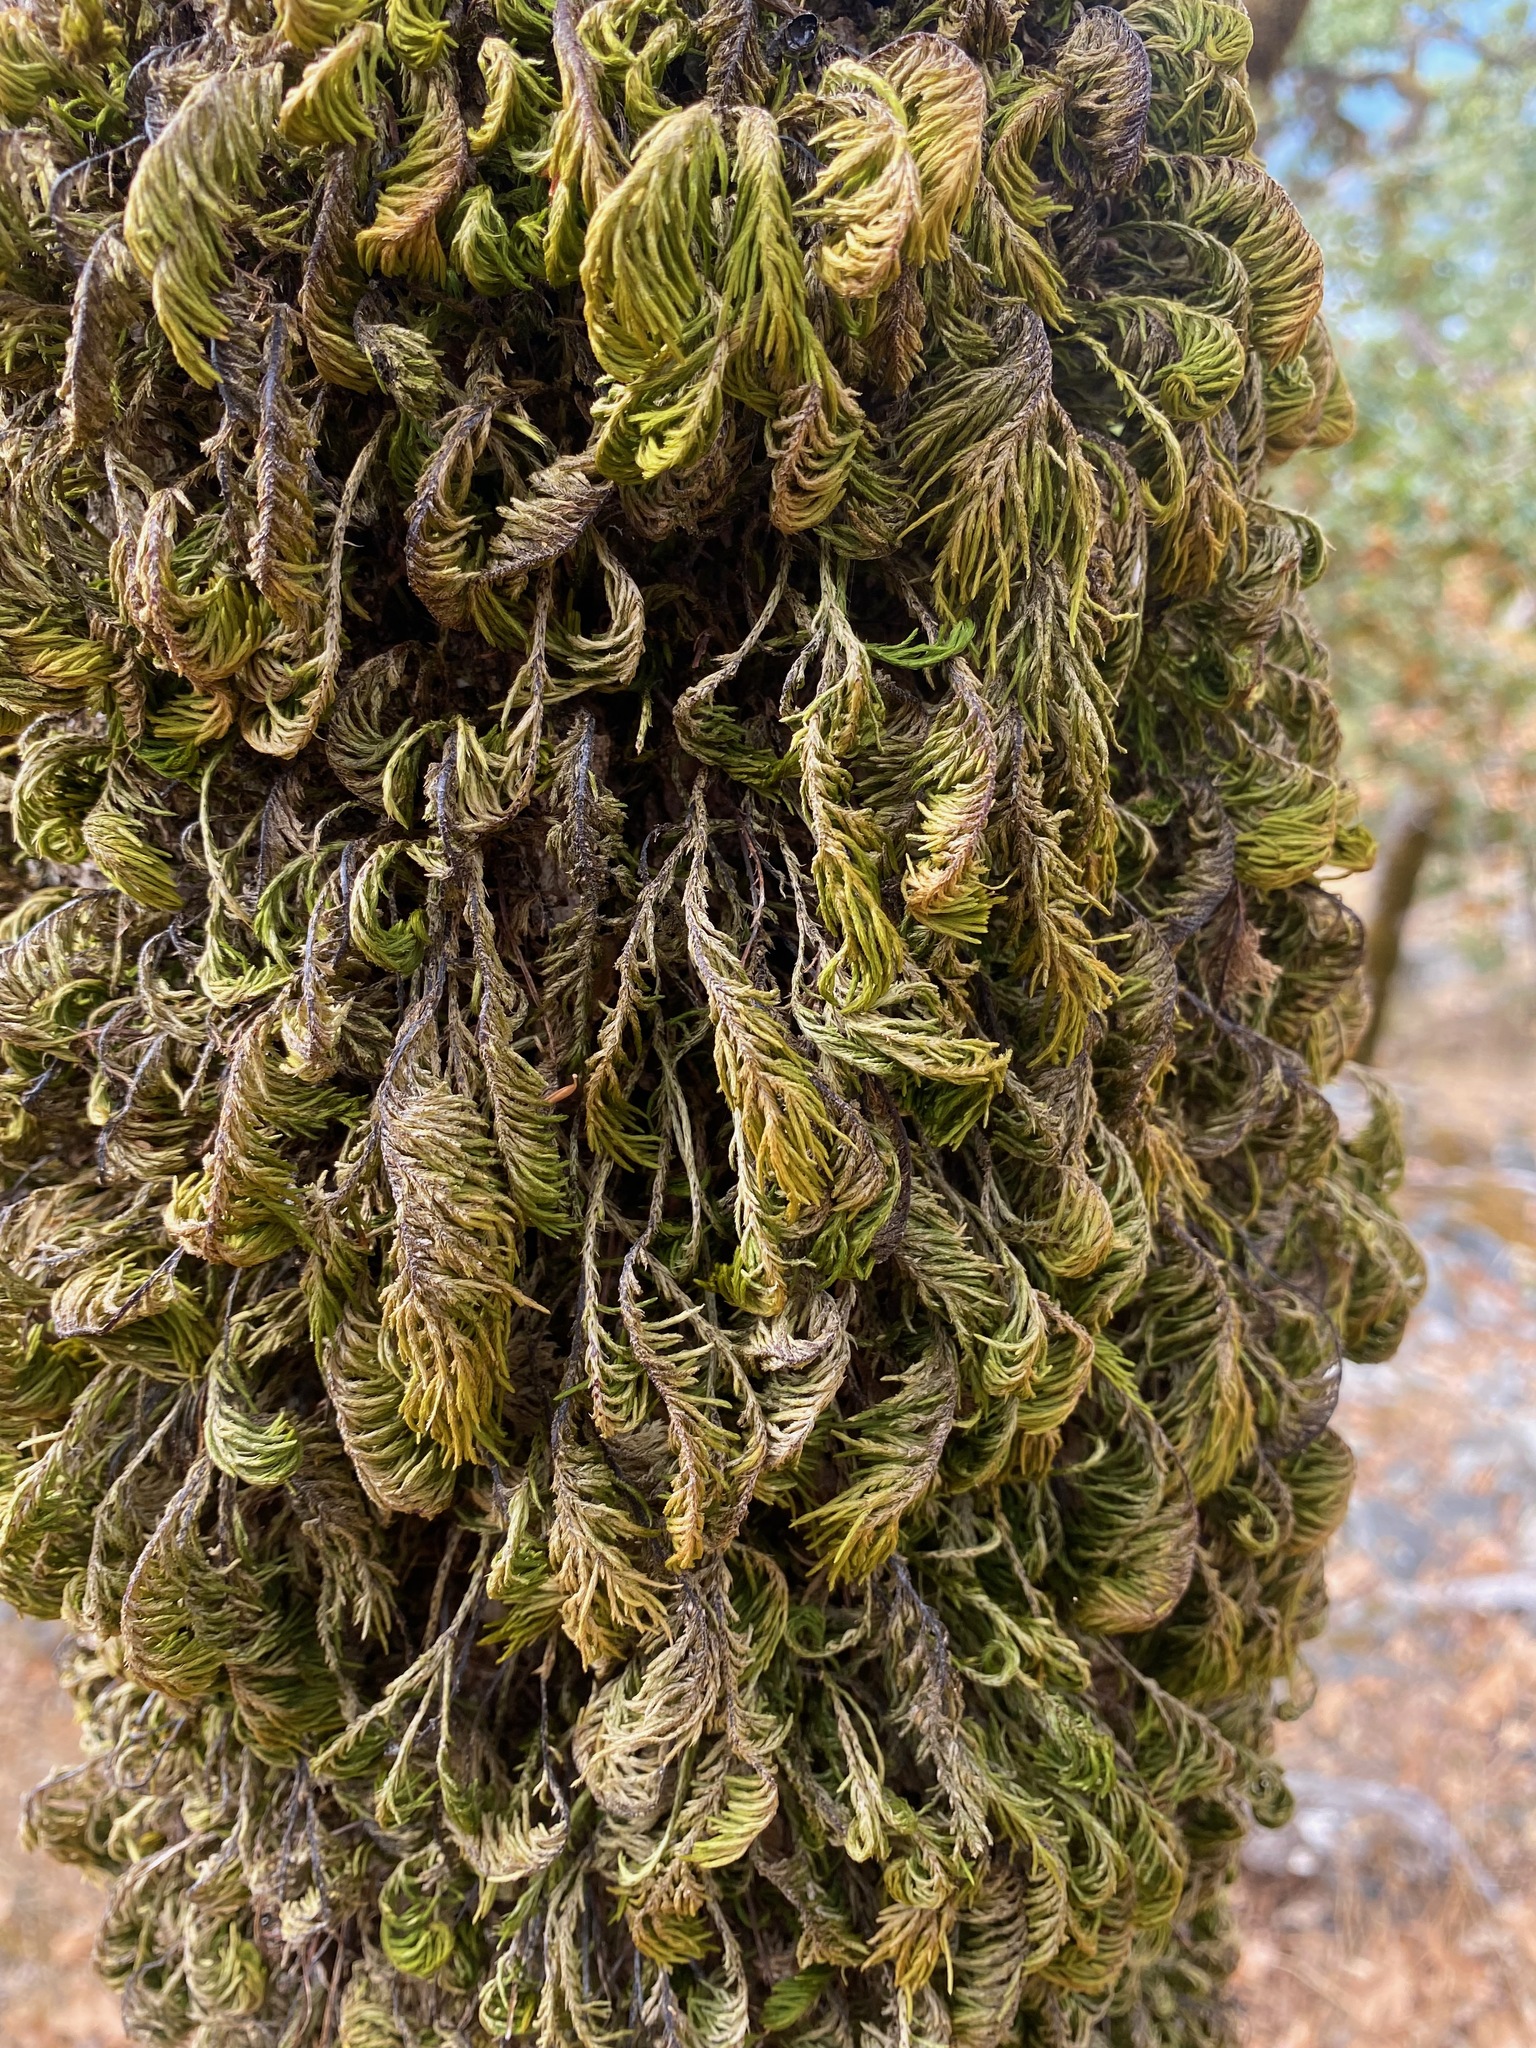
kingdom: Plantae
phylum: Bryophyta
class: Bryopsida
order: Hypnales
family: Cryphaeaceae
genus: Dendroalsia
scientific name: Dendroalsia abietina
